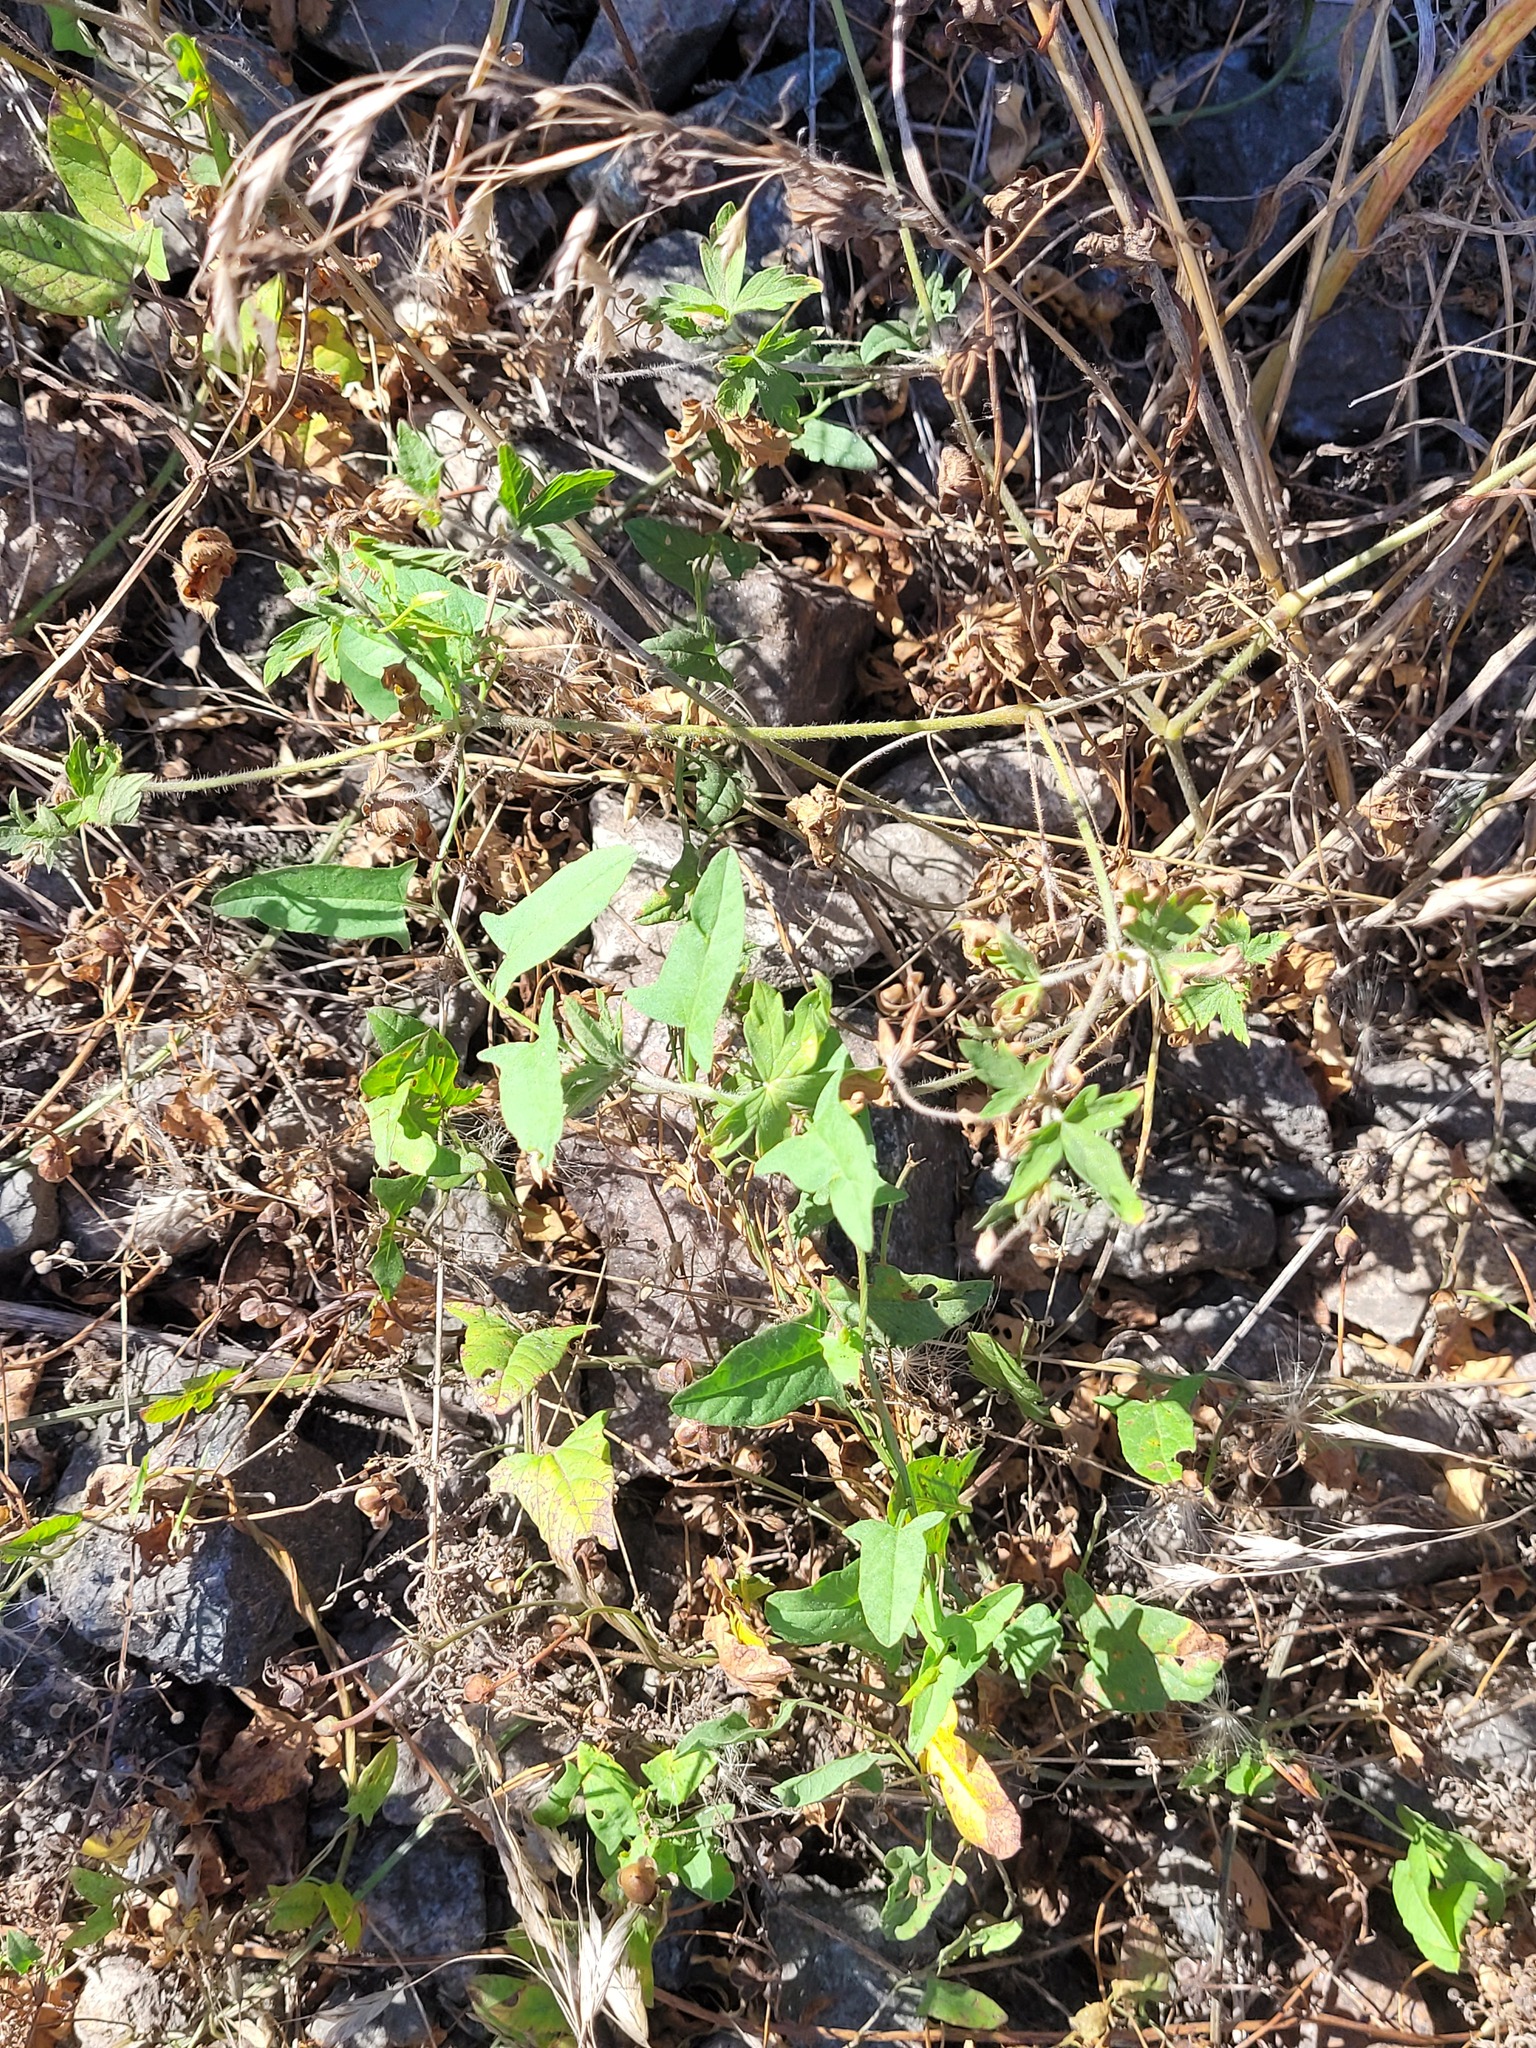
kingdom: Plantae
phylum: Tracheophyta
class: Magnoliopsida
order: Solanales
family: Convolvulaceae
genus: Convolvulus
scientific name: Convolvulus arvensis
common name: Field bindweed
